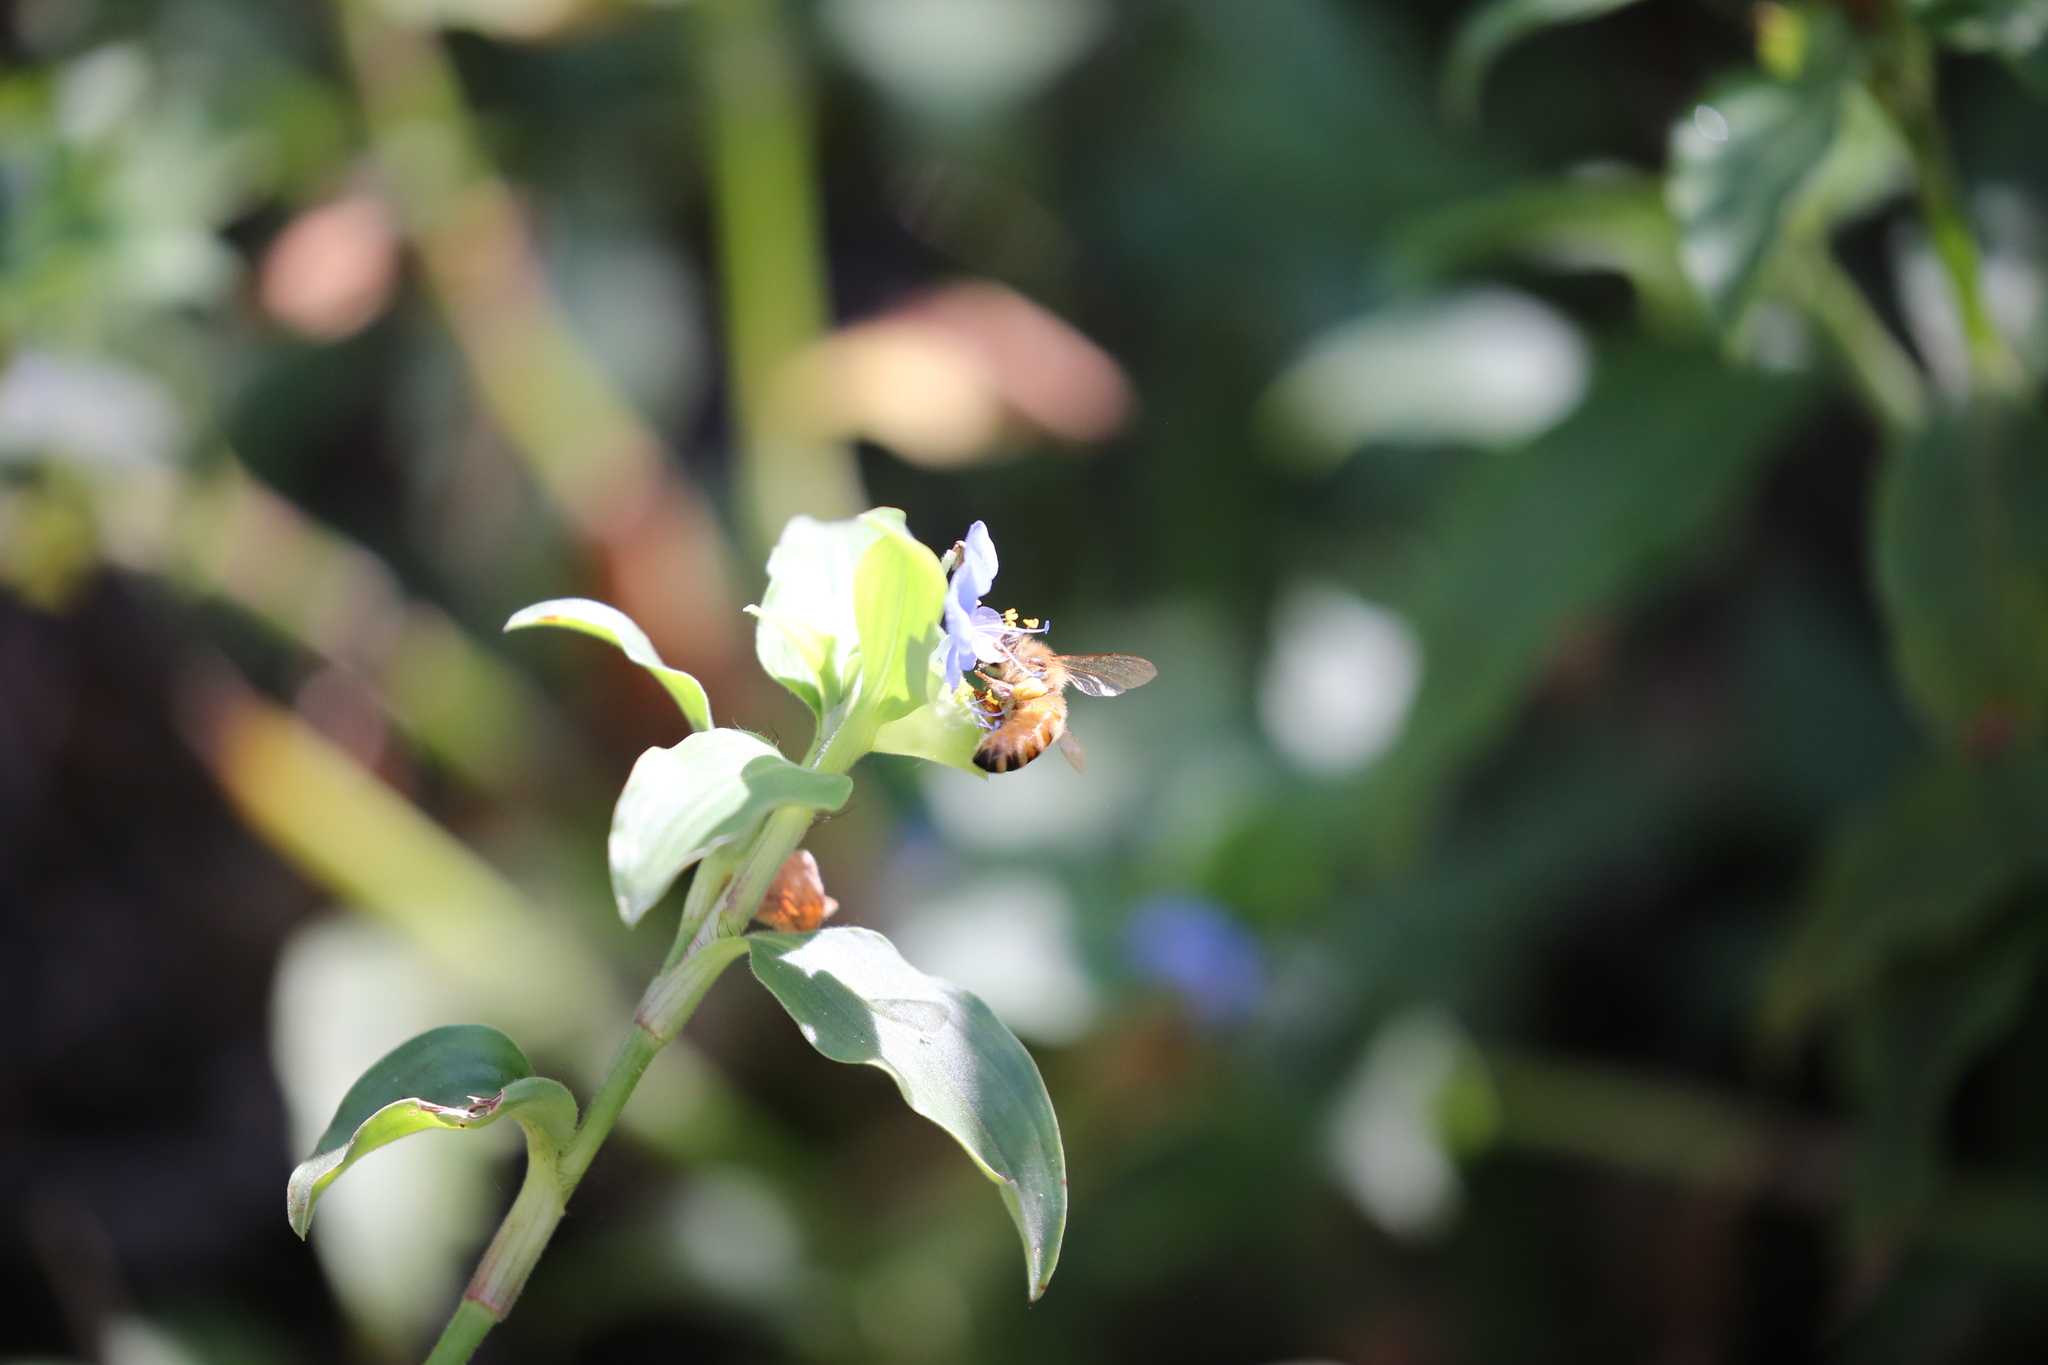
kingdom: Animalia
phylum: Arthropoda
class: Insecta
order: Hymenoptera
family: Apidae
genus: Apis
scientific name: Apis mellifera
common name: Honey bee
